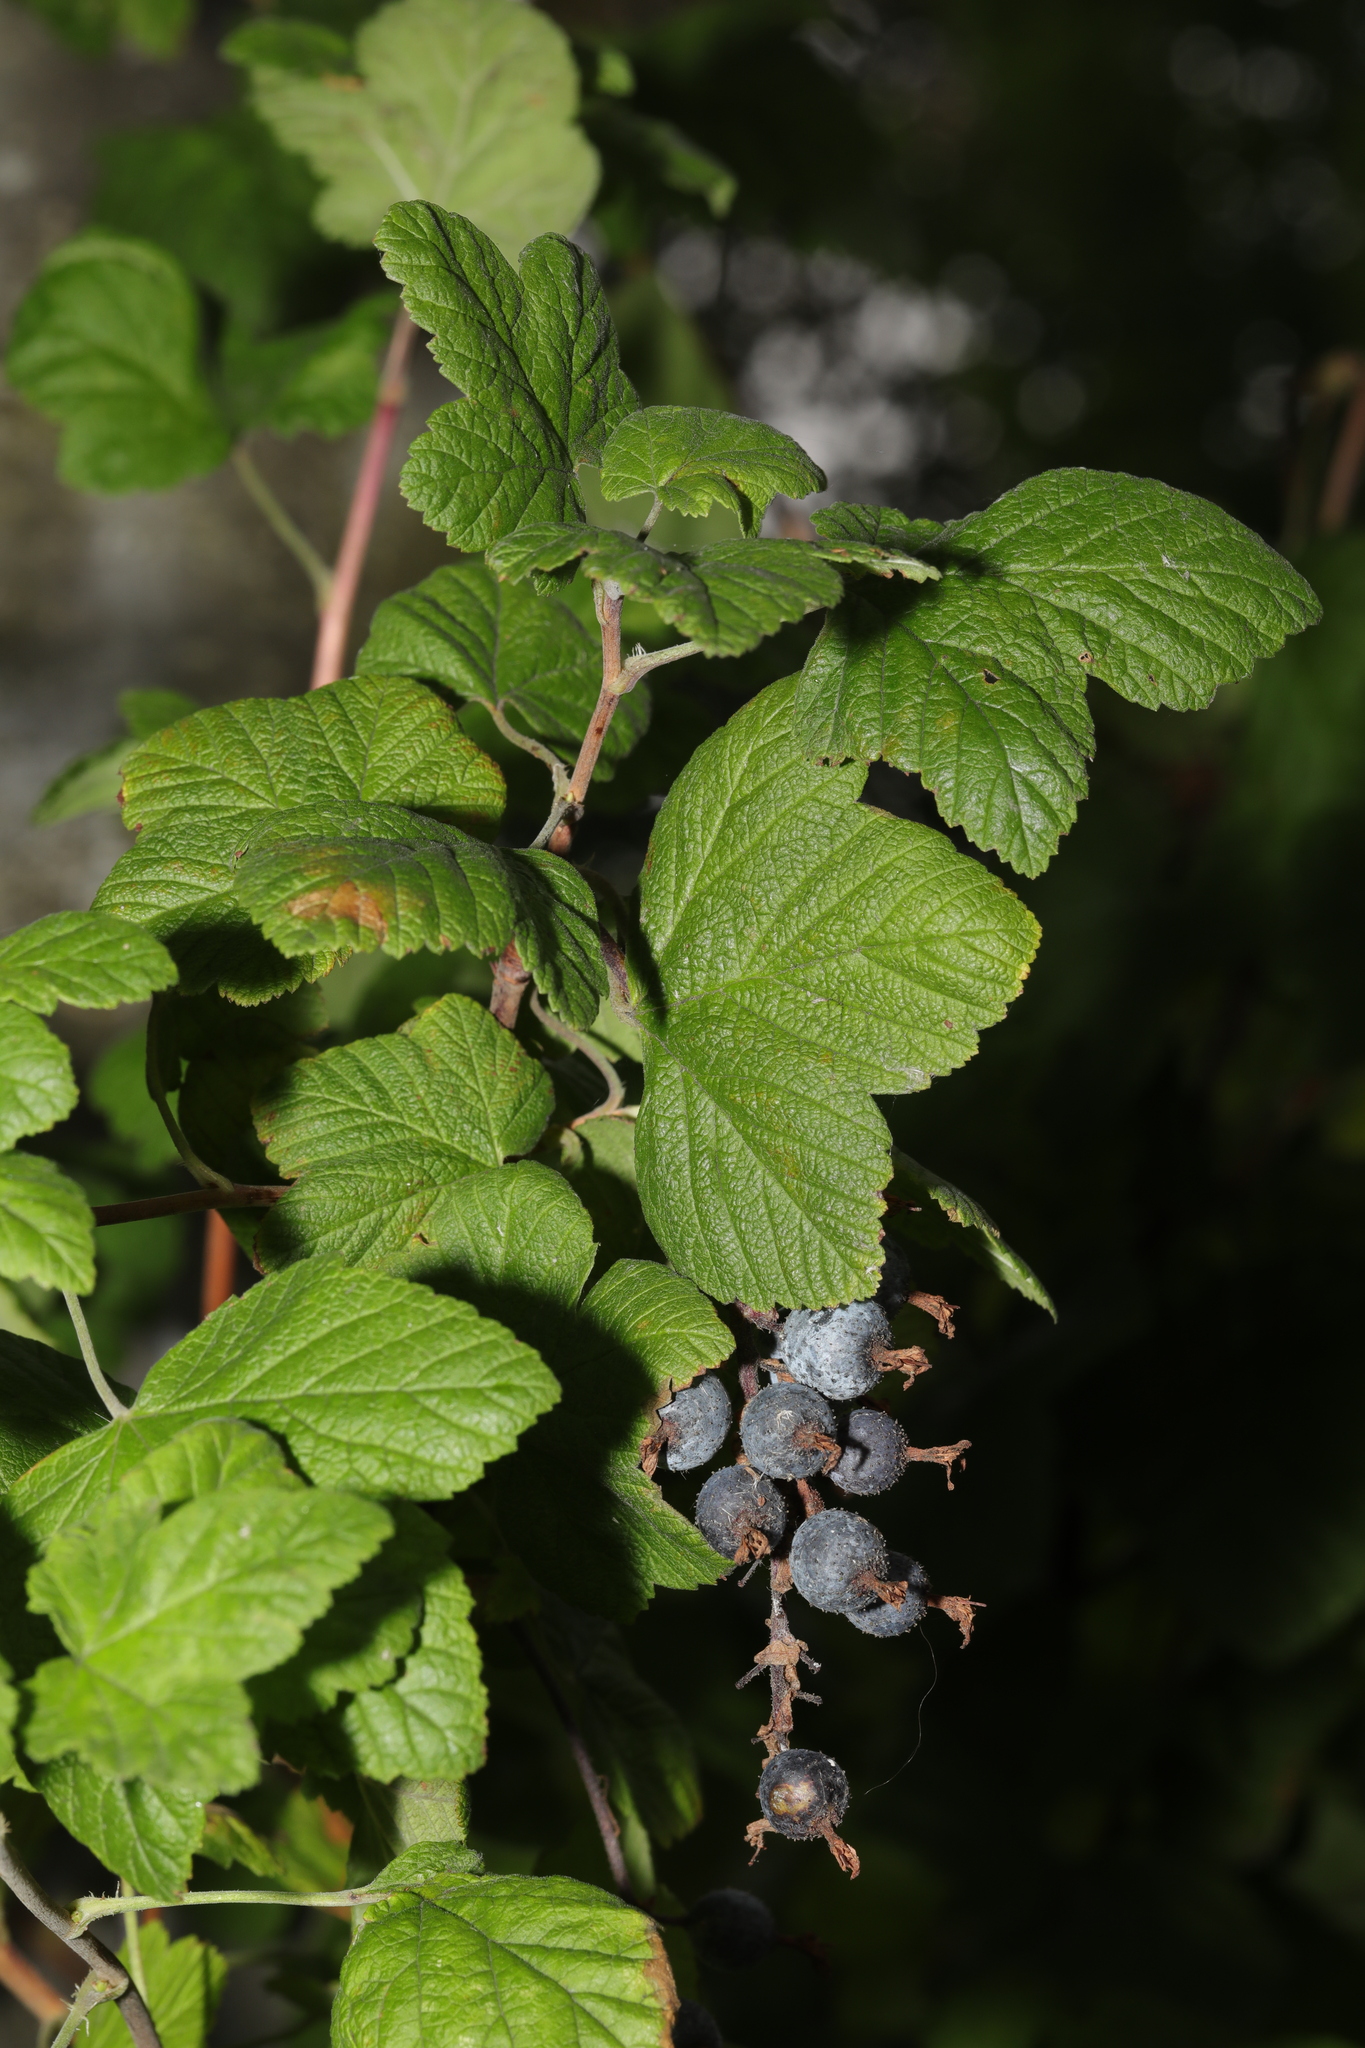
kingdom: Plantae
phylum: Tracheophyta
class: Magnoliopsida
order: Saxifragales
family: Grossulariaceae
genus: Ribes
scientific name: Ribes sanguineum
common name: Flowering currant
